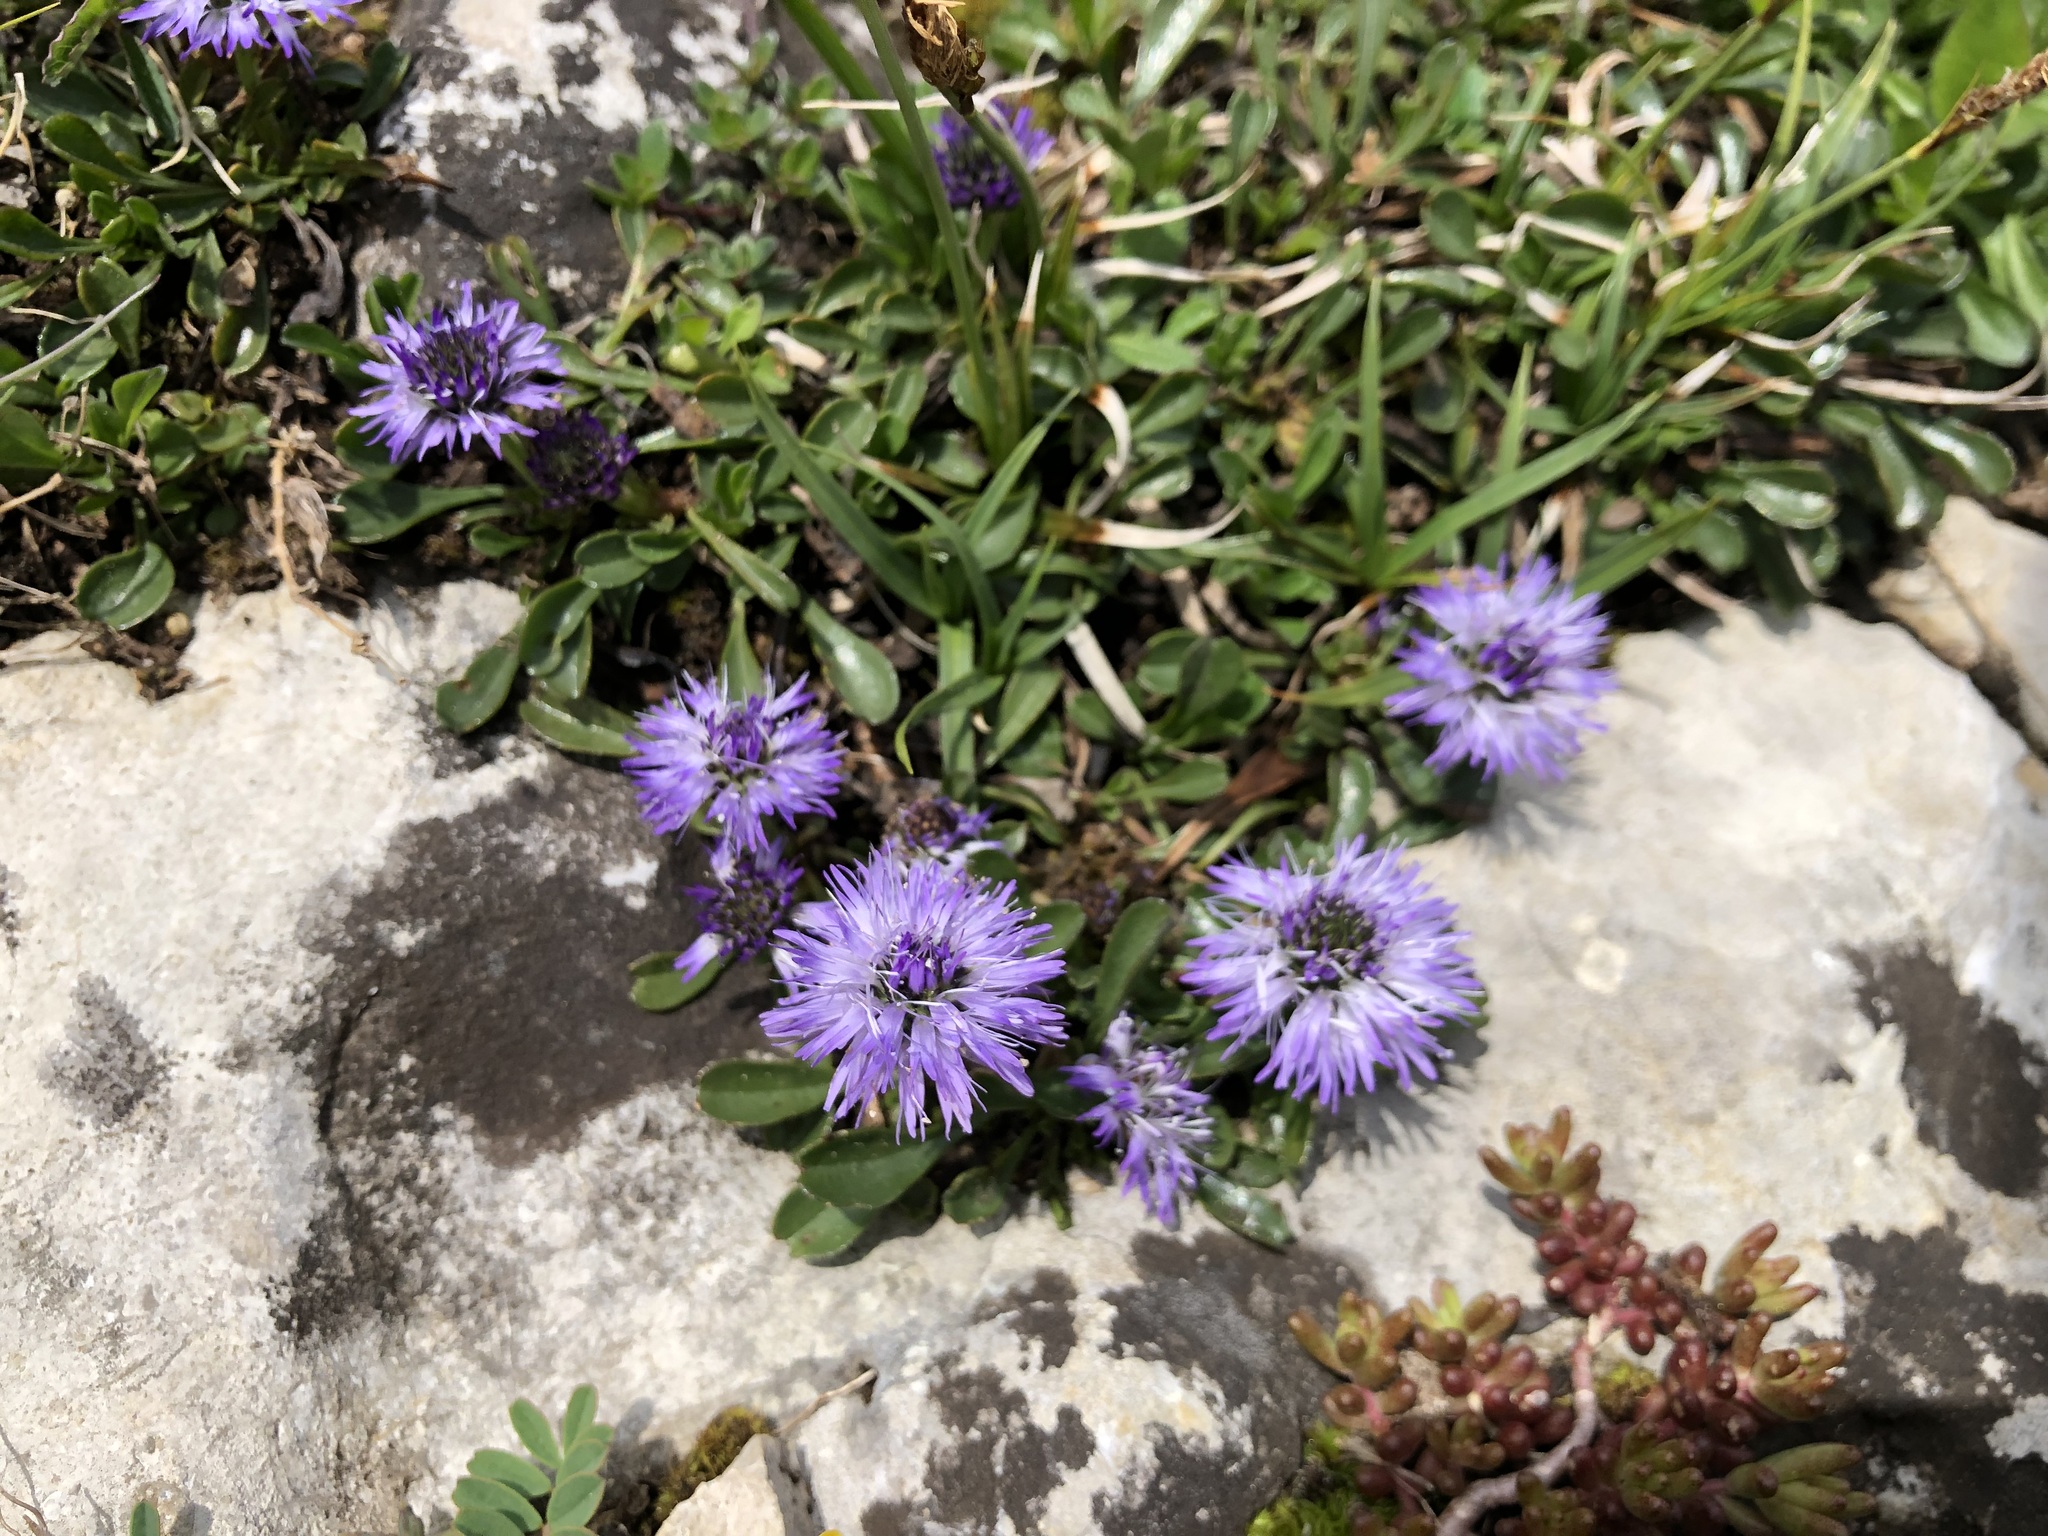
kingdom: Plantae
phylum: Tracheophyta
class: Magnoliopsida
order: Lamiales
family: Plantaginaceae
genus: Globularia
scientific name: Globularia cordifolia
